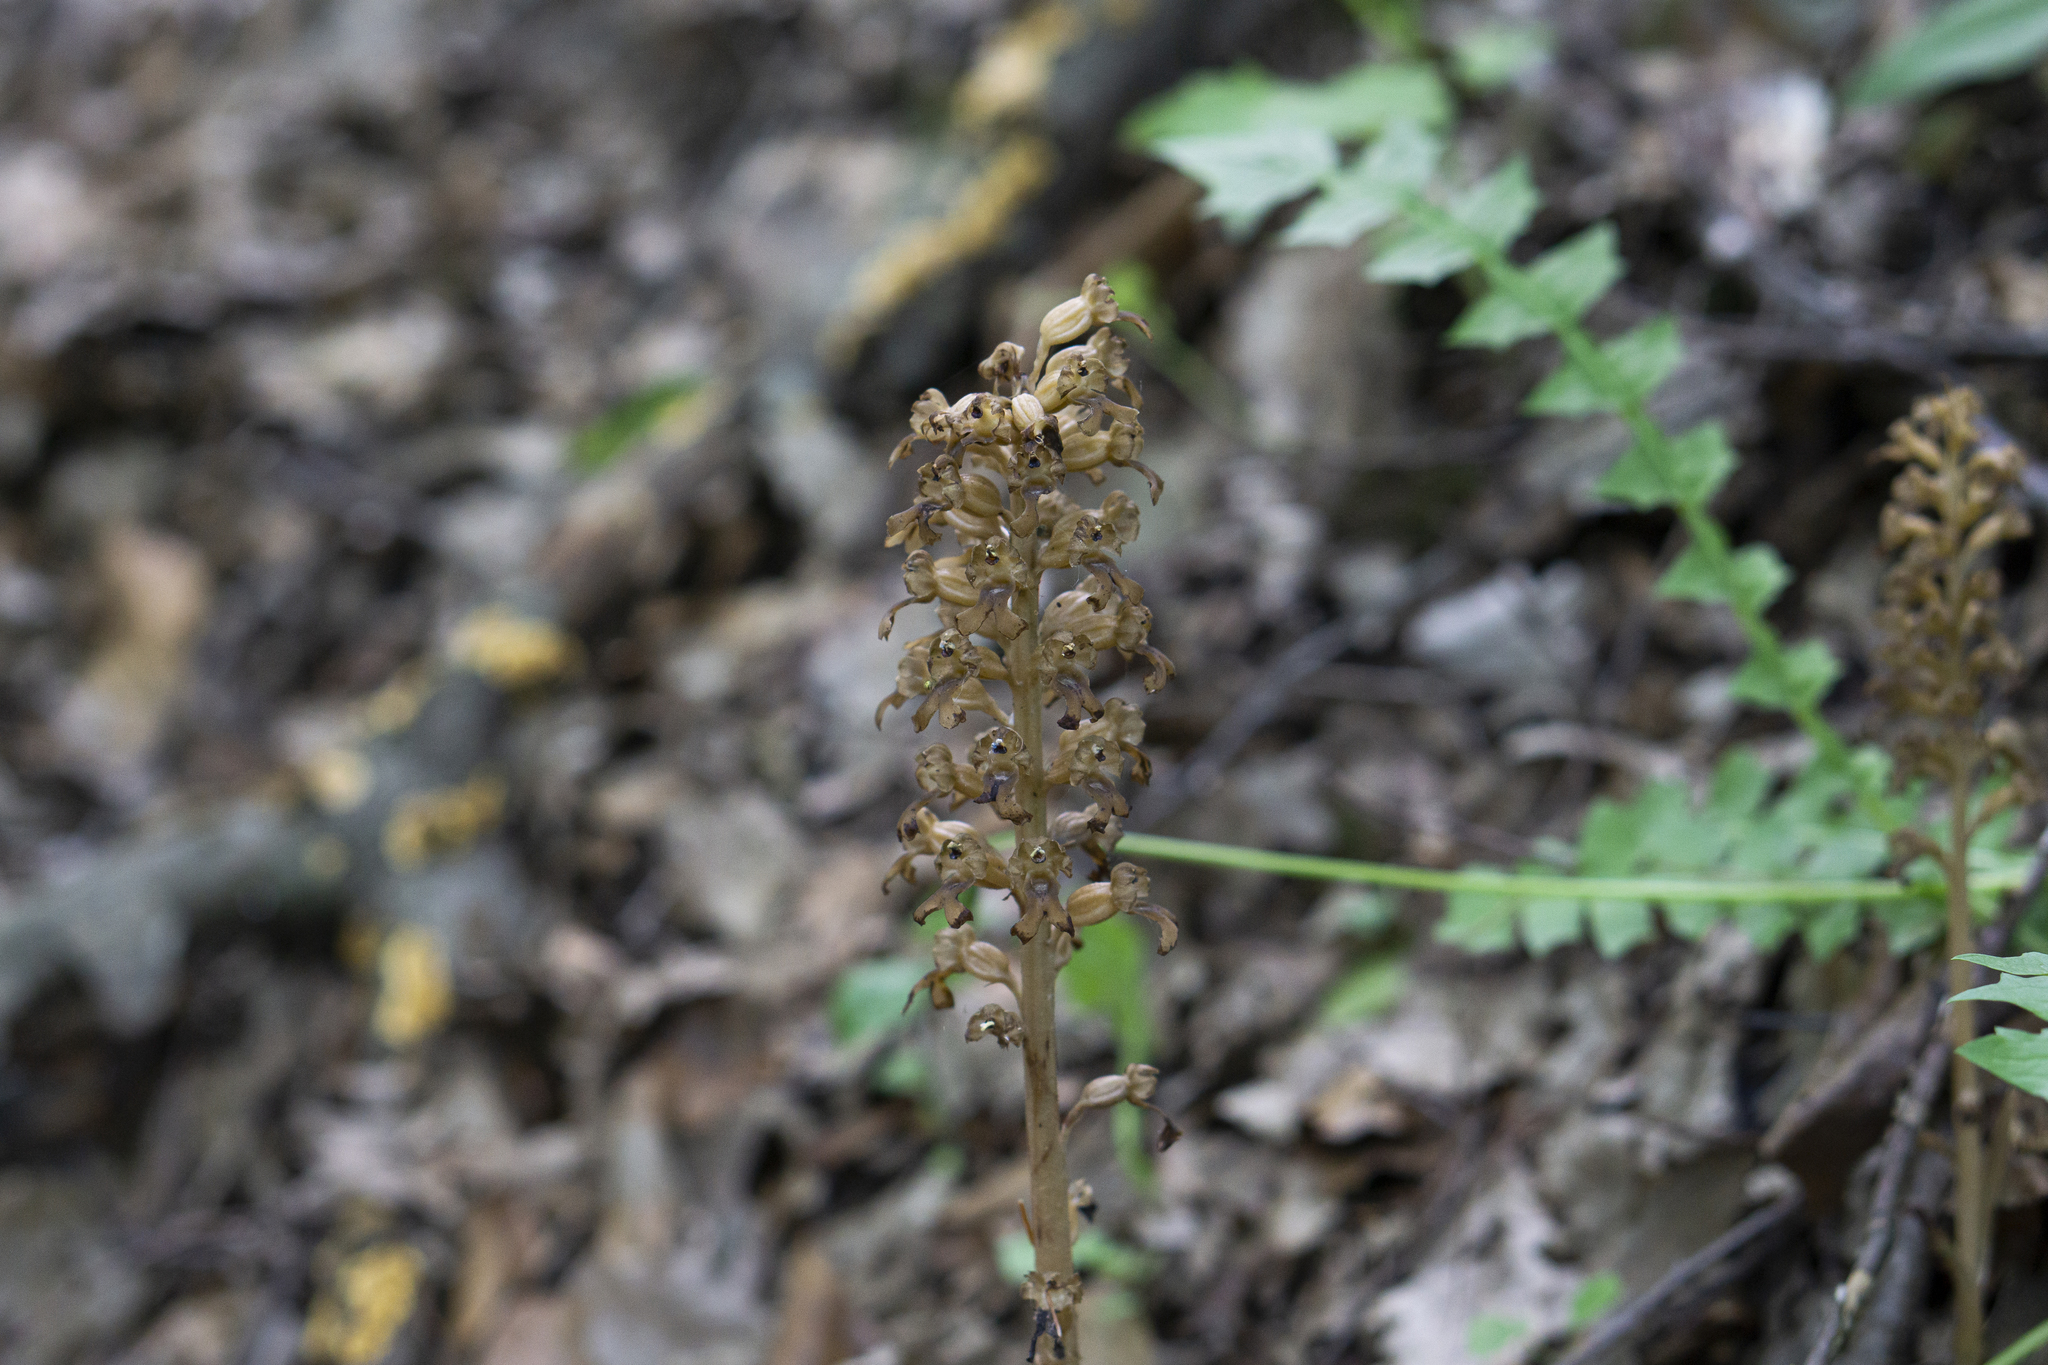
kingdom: Plantae
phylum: Tracheophyta
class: Liliopsida
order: Asparagales
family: Orchidaceae
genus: Neottia
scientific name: Neottia nidus-avis
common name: Bird's-nest orchid
